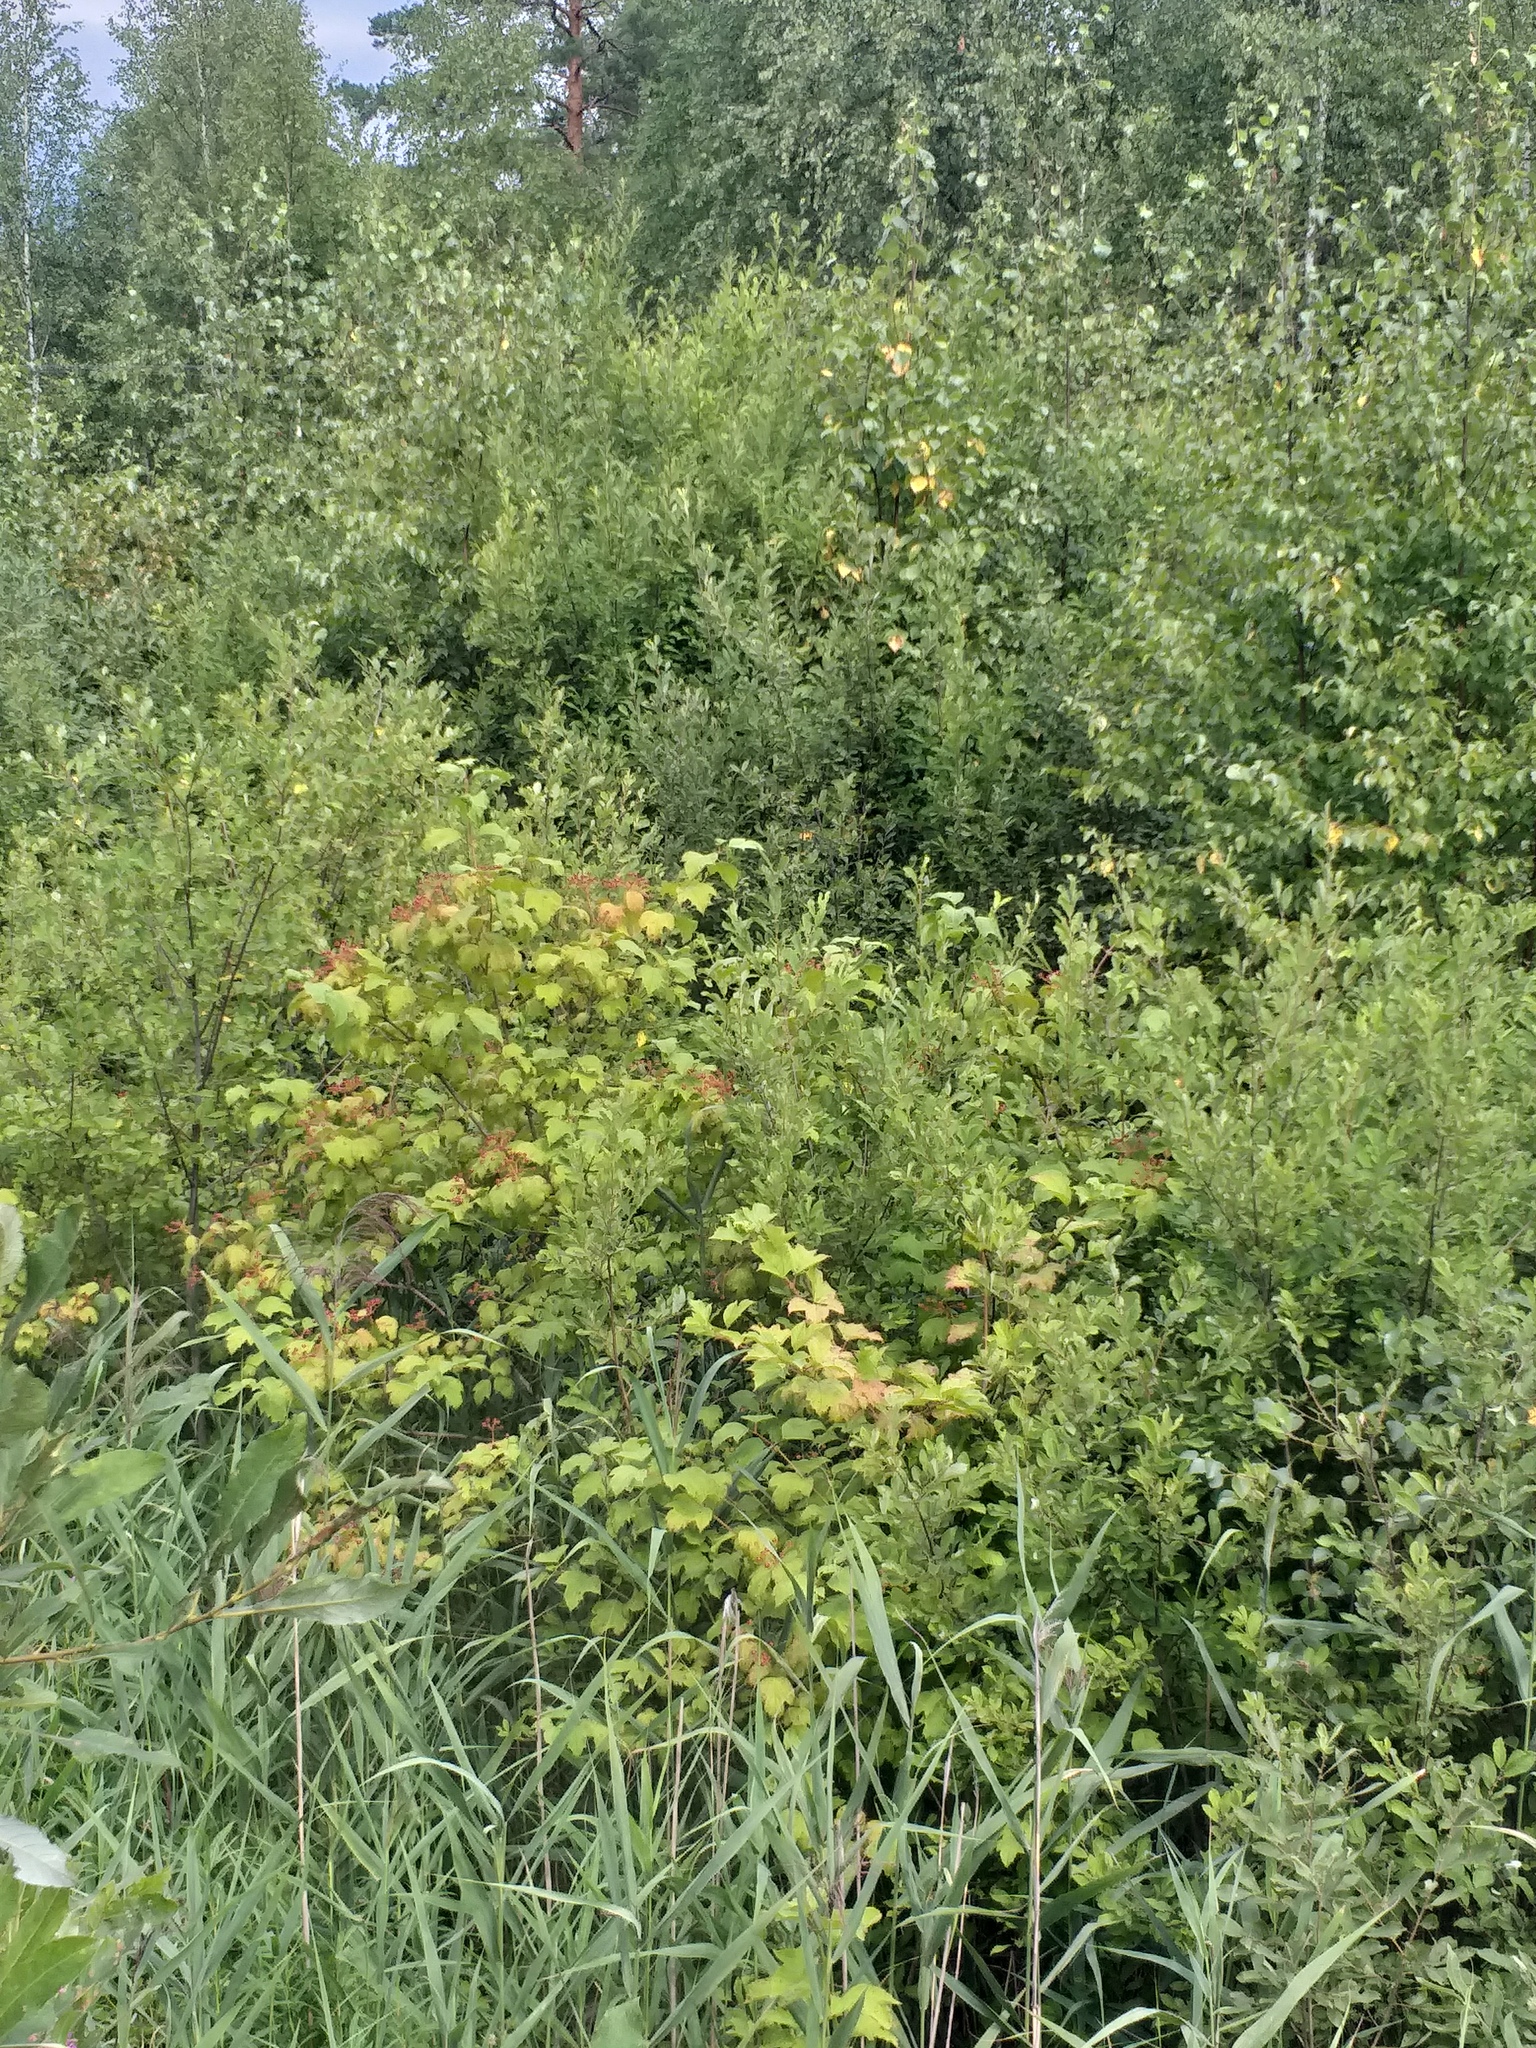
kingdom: Plantae
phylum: Tracheophyta
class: Magnoliopsida
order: Dipsacales
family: Viburnaceae
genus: Viburnum
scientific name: Viburnum opulus
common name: Guelder-rose
